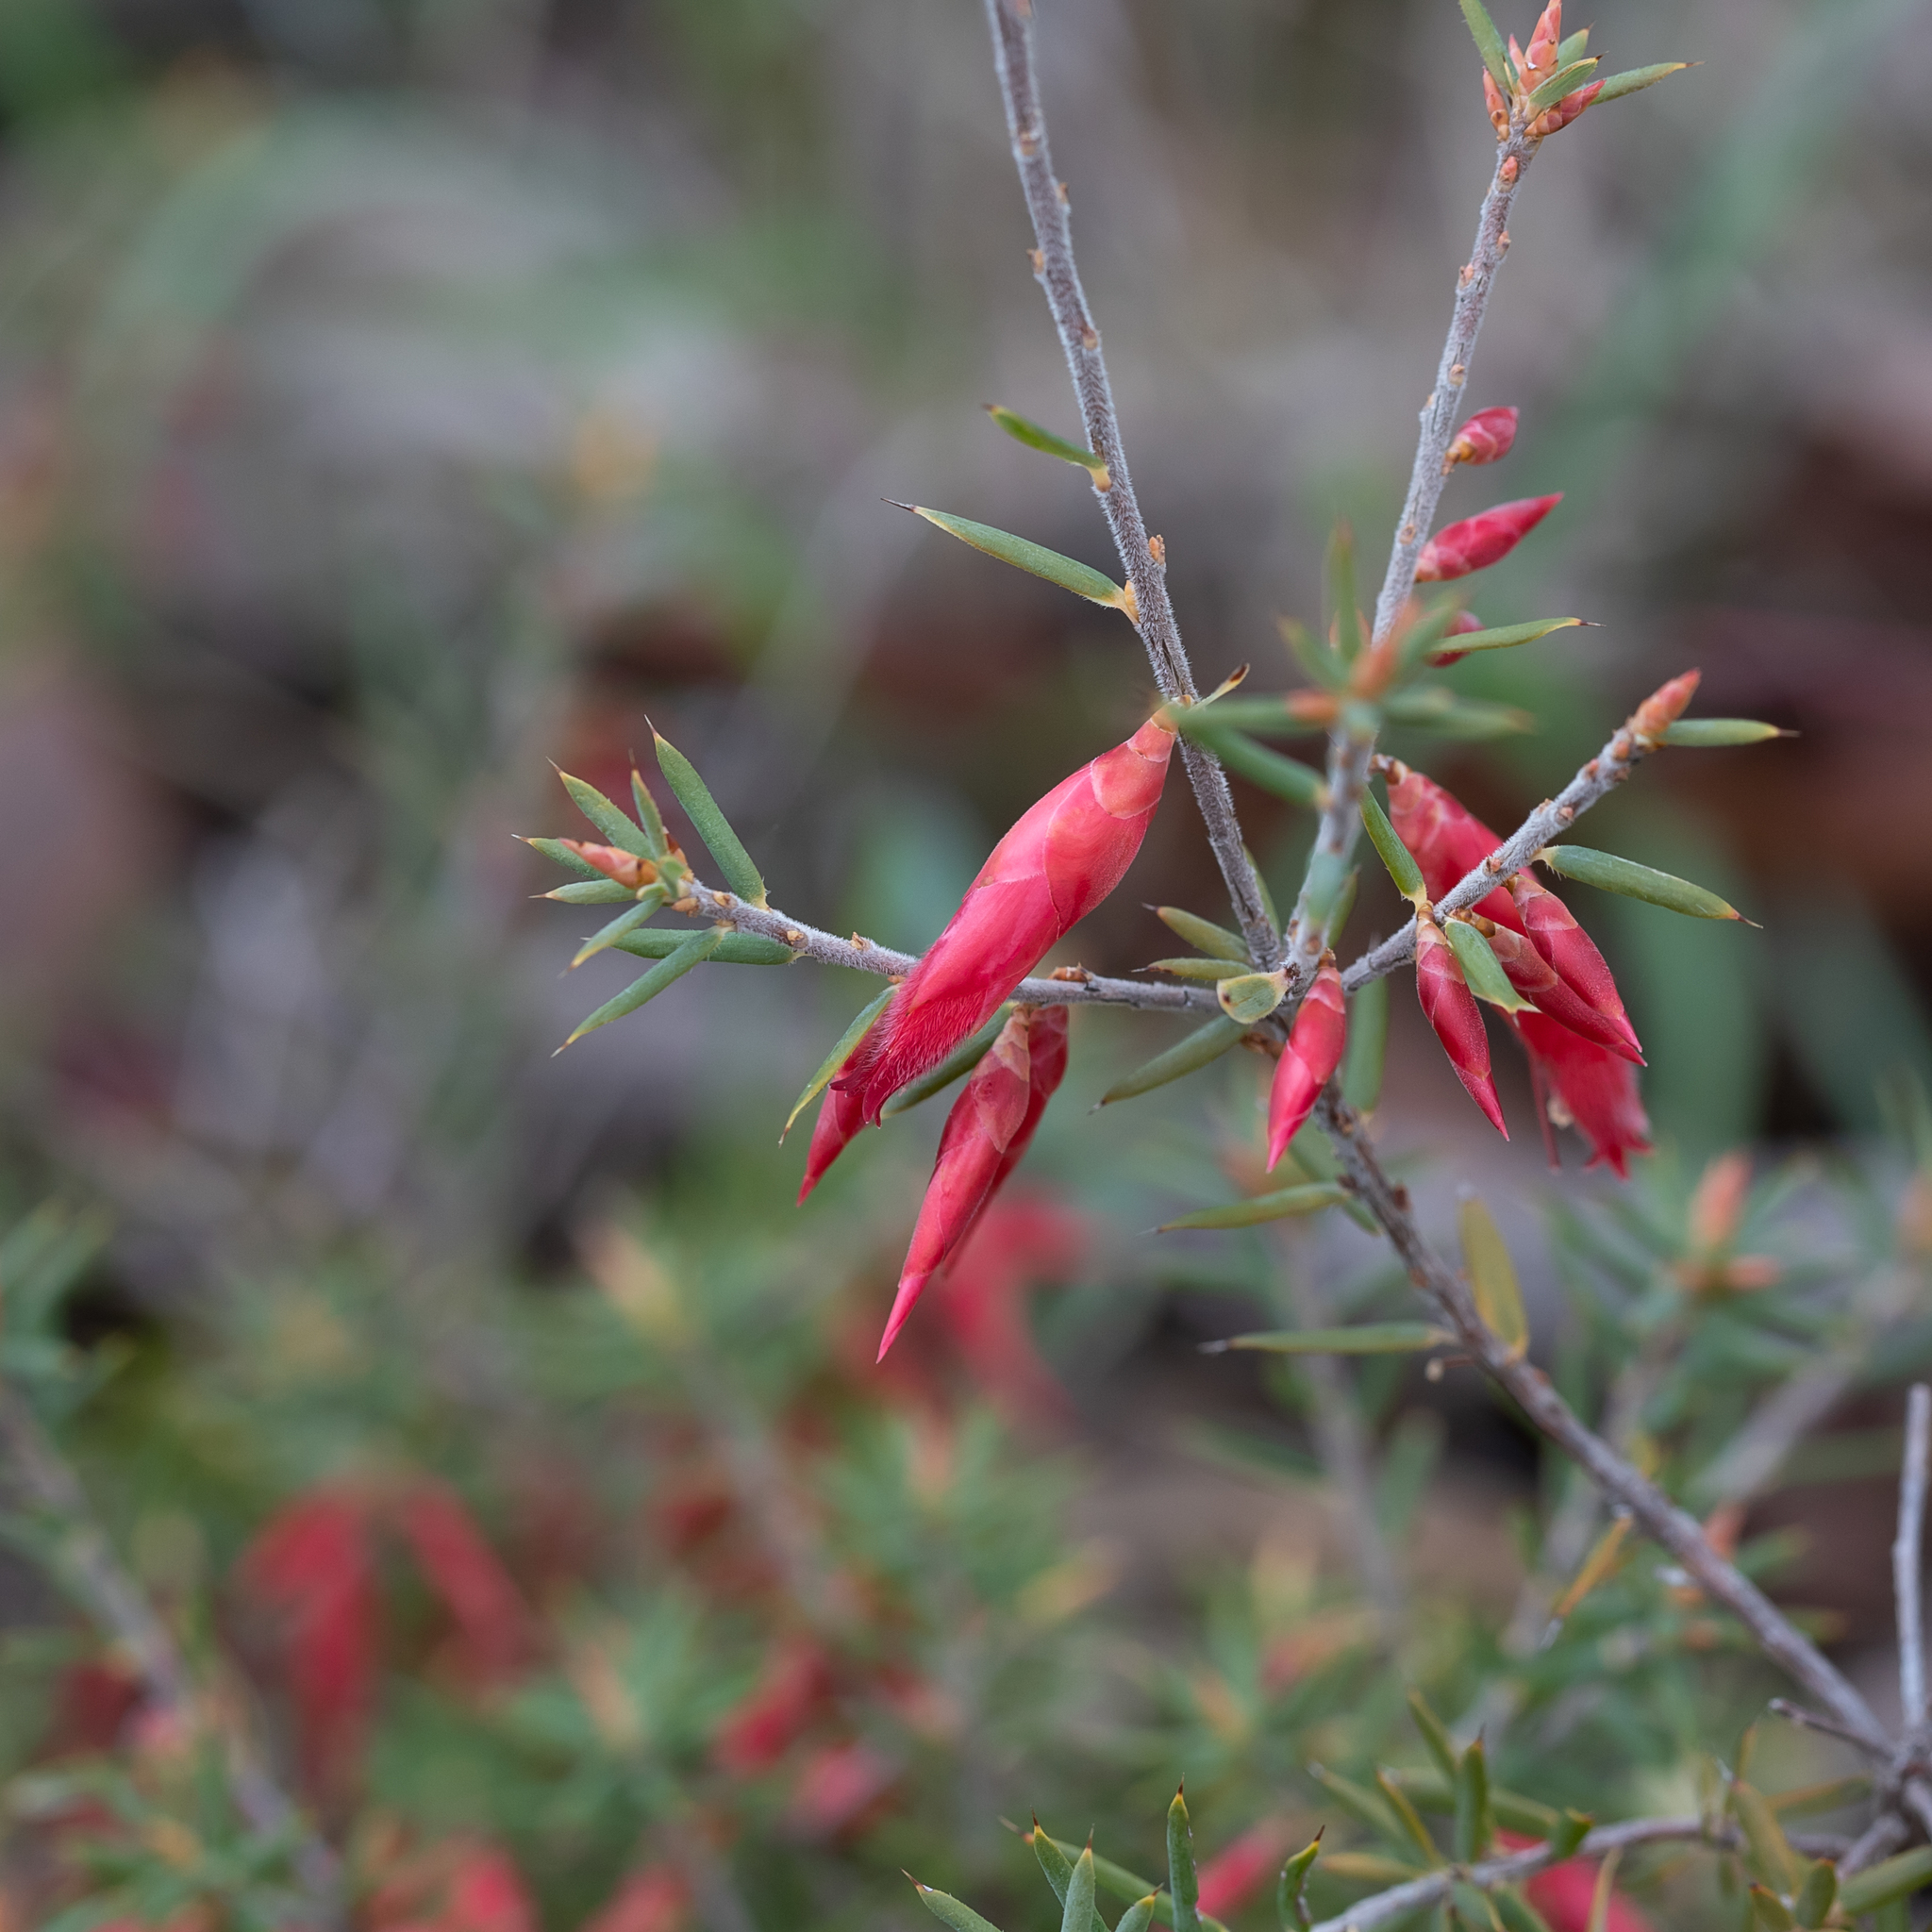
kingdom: Plantae
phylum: Tracheophyta
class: Magnoliopsida
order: Ericales
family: Ericaceae
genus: Stenanthera
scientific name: Stenanthera conostephioides
